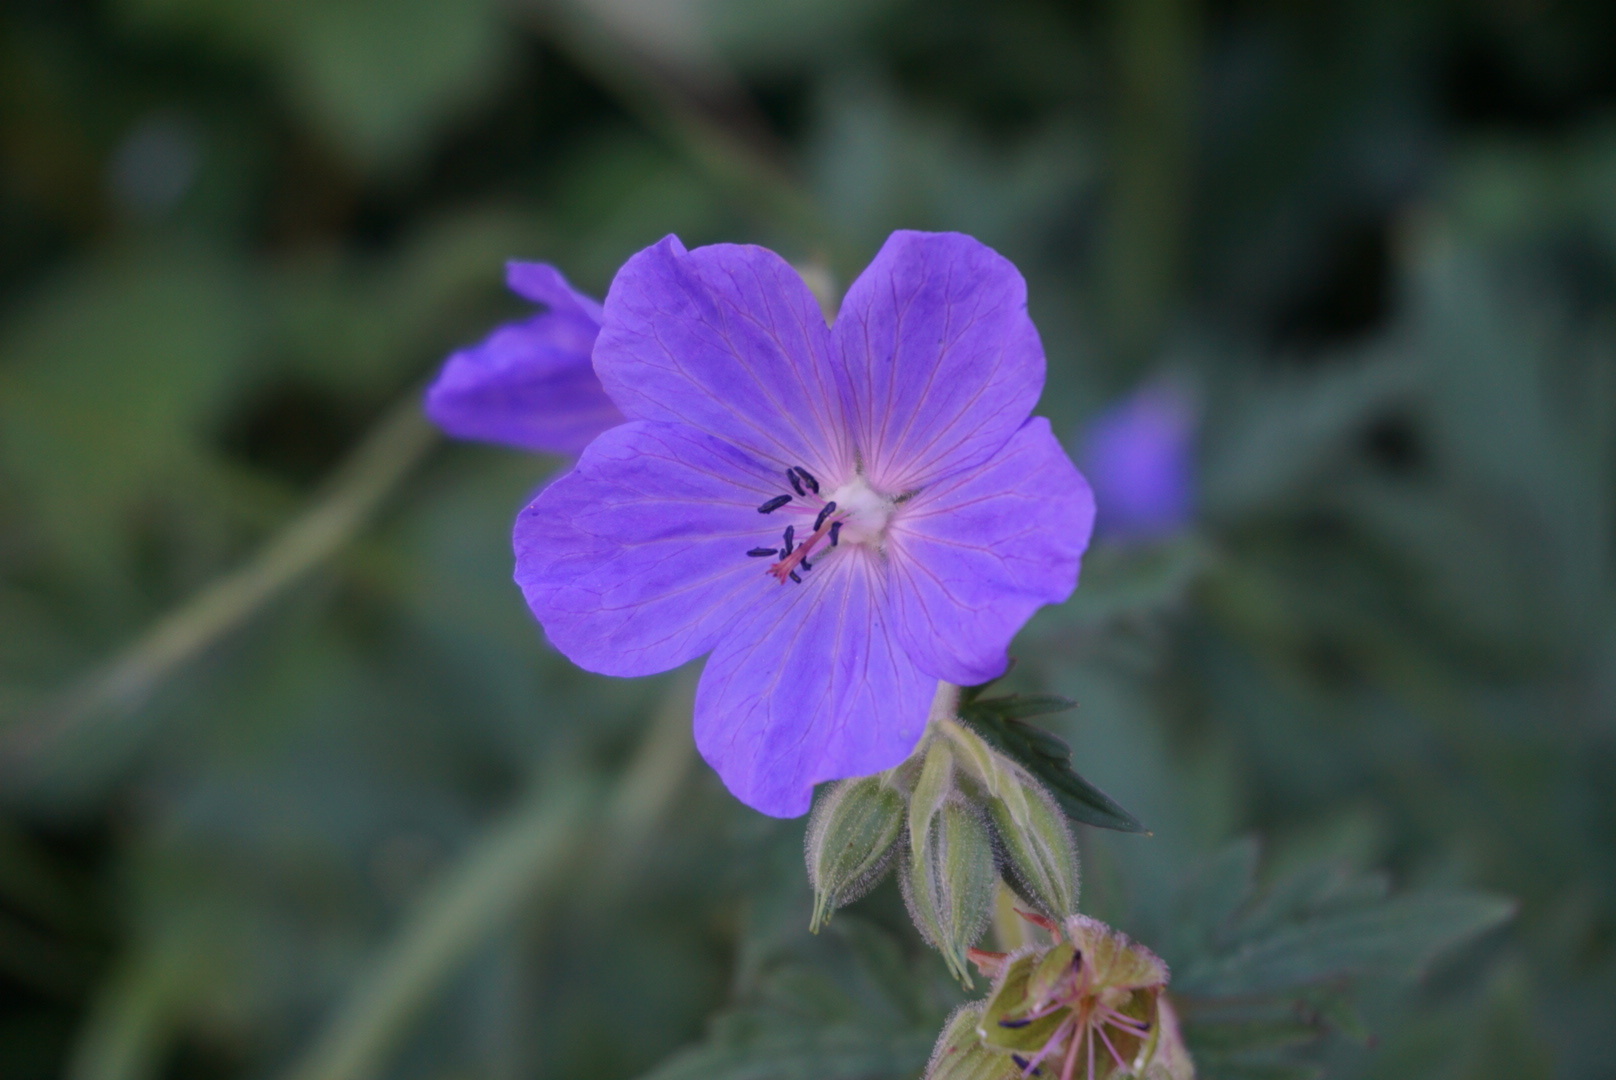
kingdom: Plantae
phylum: Tracheophyta
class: Magnoliopsida
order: Geraniales
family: Geraniaceae
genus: Geranium
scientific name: Geranium pratense
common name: Meadow crane's-bill
